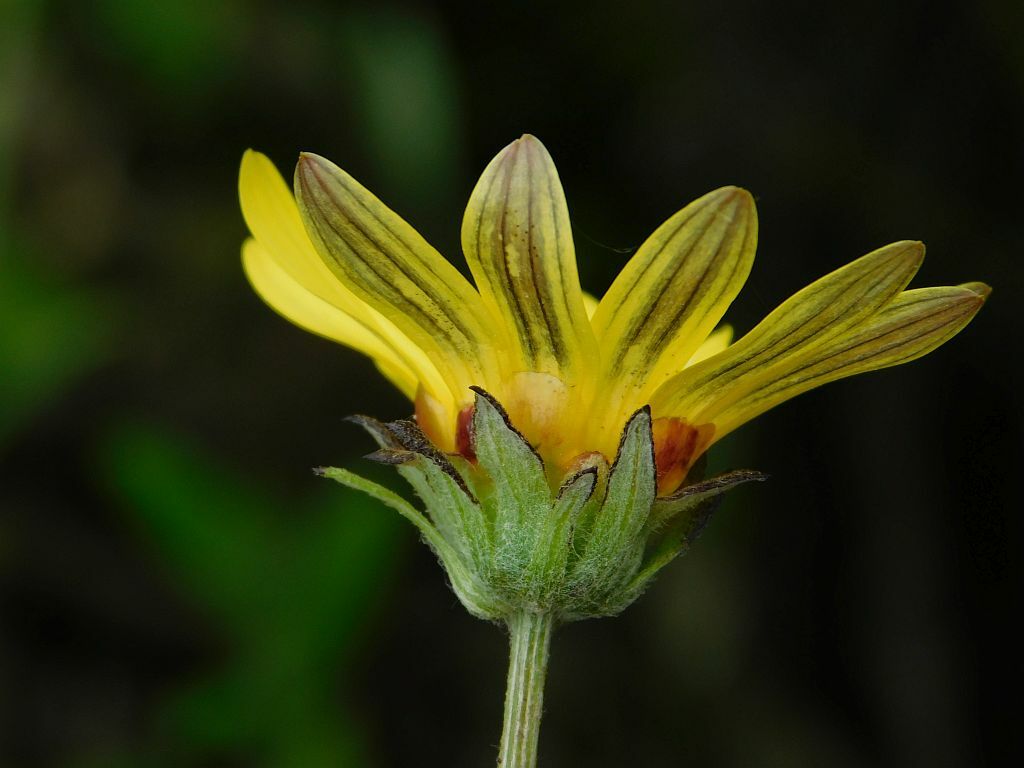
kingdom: Plantae
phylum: Tracheophyta
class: Magnoliopsida
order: Asterales
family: Asteraceae
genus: Arctotis
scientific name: Arctotis scabra
